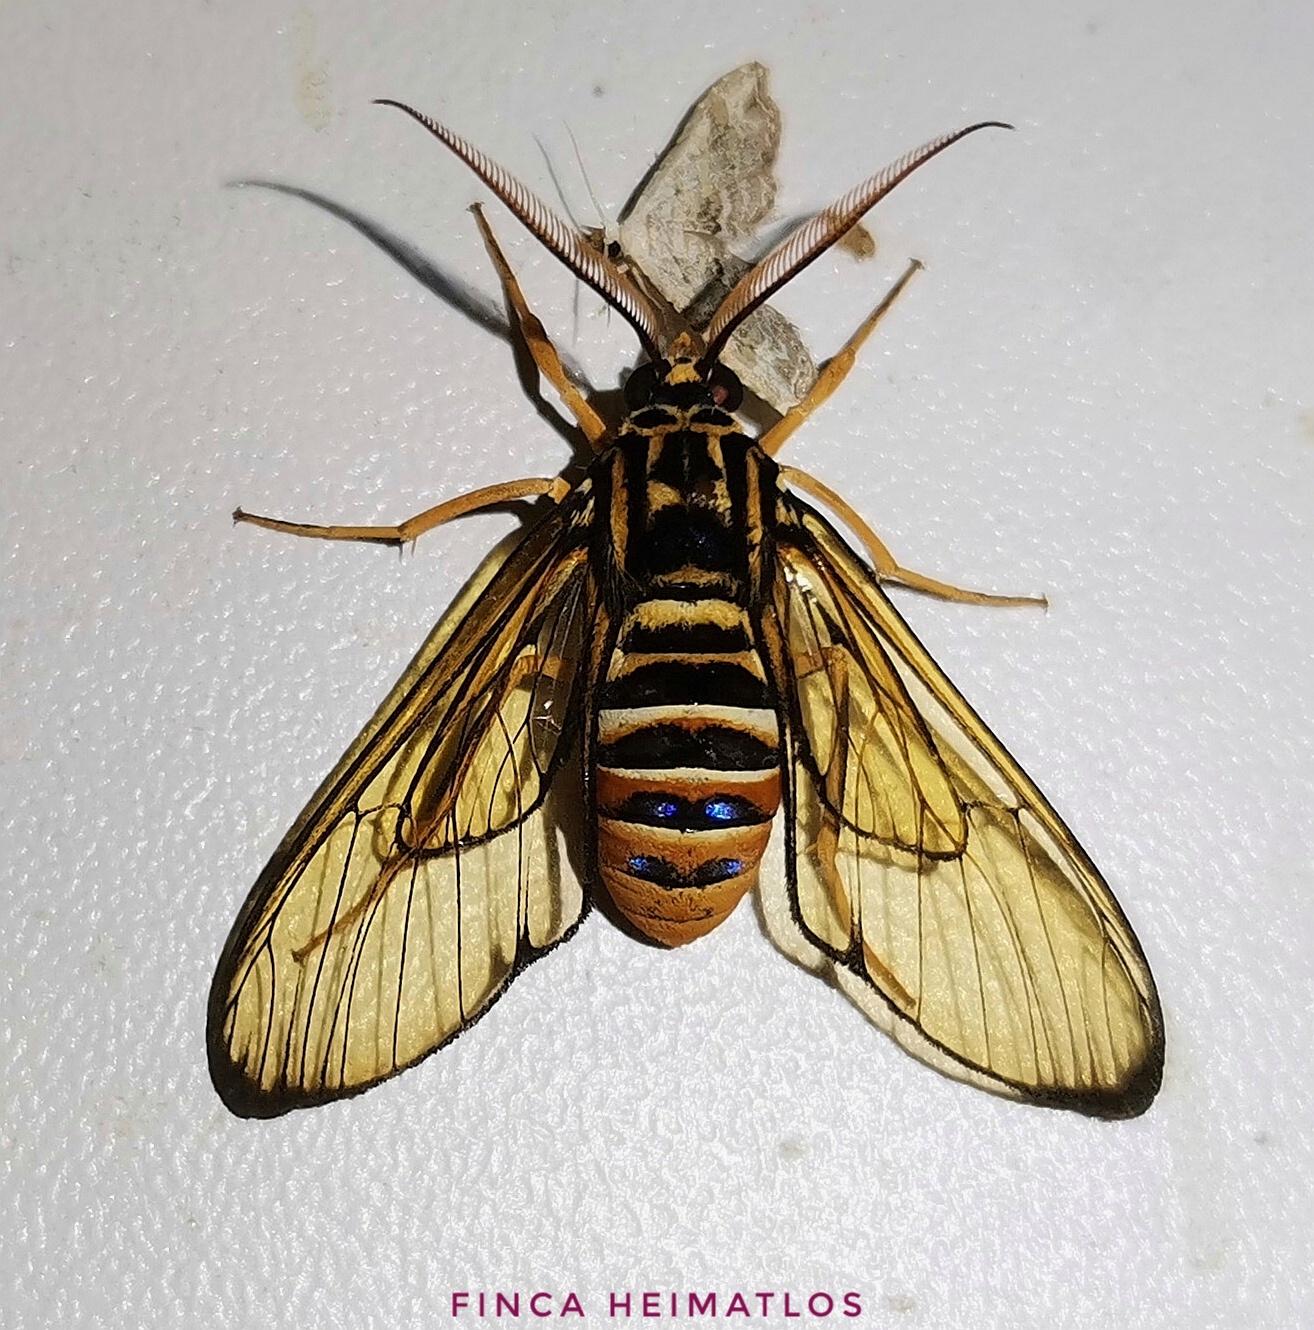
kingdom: Animalia
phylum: Arthropoda
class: Insecta
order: Lepidoptera
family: Erebidae
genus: Gymnelia
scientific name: Gymnelia villia
